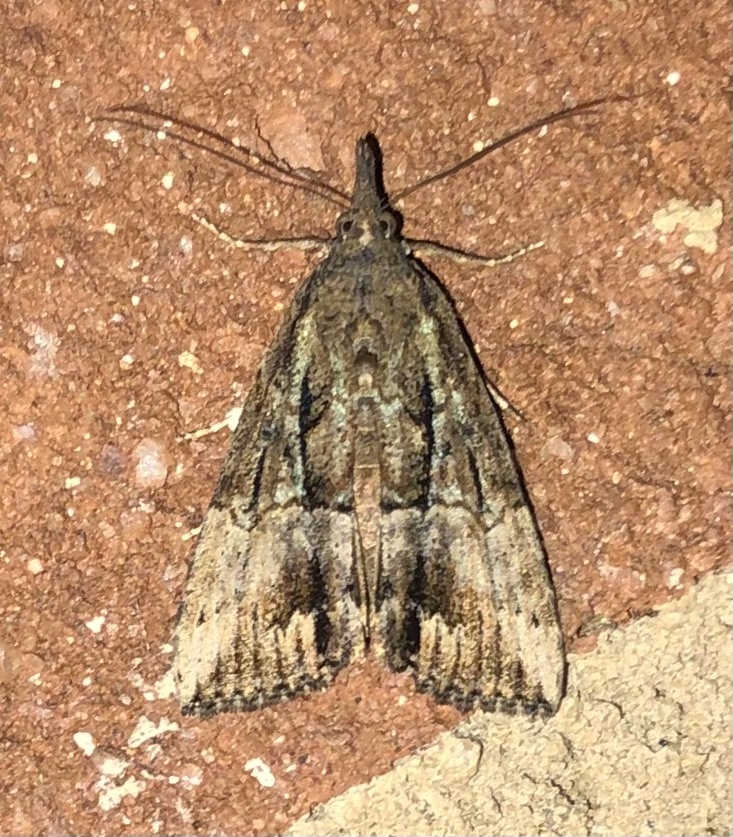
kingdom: Animalia
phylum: Arthropoda
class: Insecta
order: Lepidoptera
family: Erebidae
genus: Hypena
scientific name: Hypena scabra
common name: Green cloverworm
